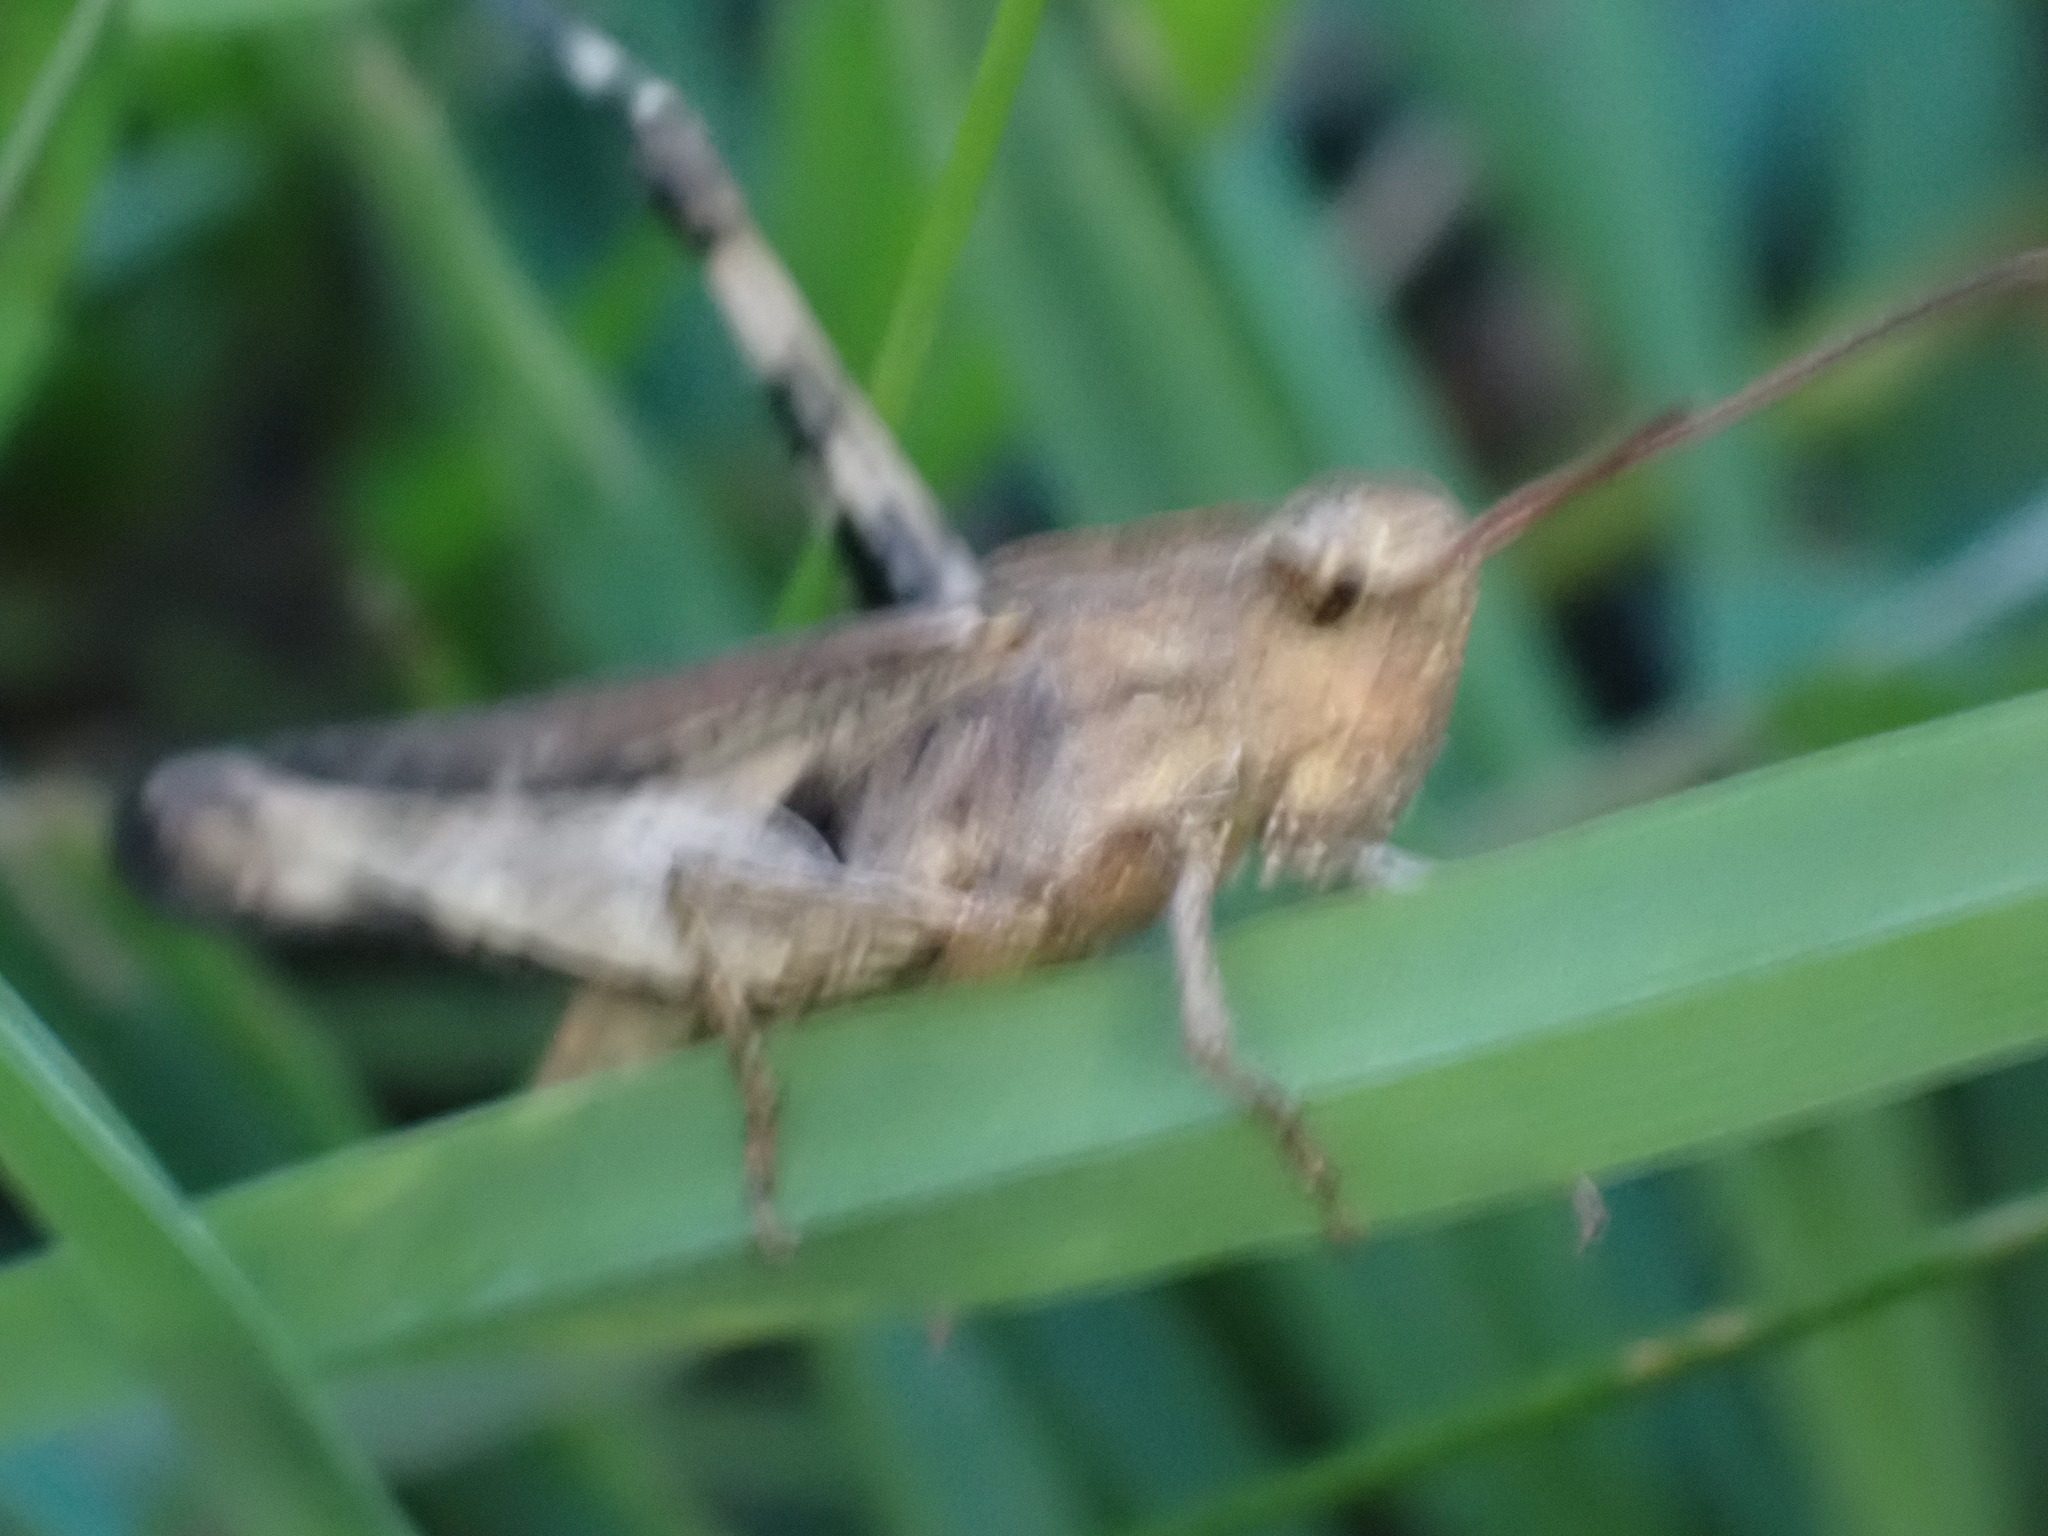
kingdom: Animalia
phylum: Arthropoda
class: Insecta
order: Orthoptera
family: Acrididae
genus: Chortophaga
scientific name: Chortophaga viridifasciata
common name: Green-striped grasshopper
